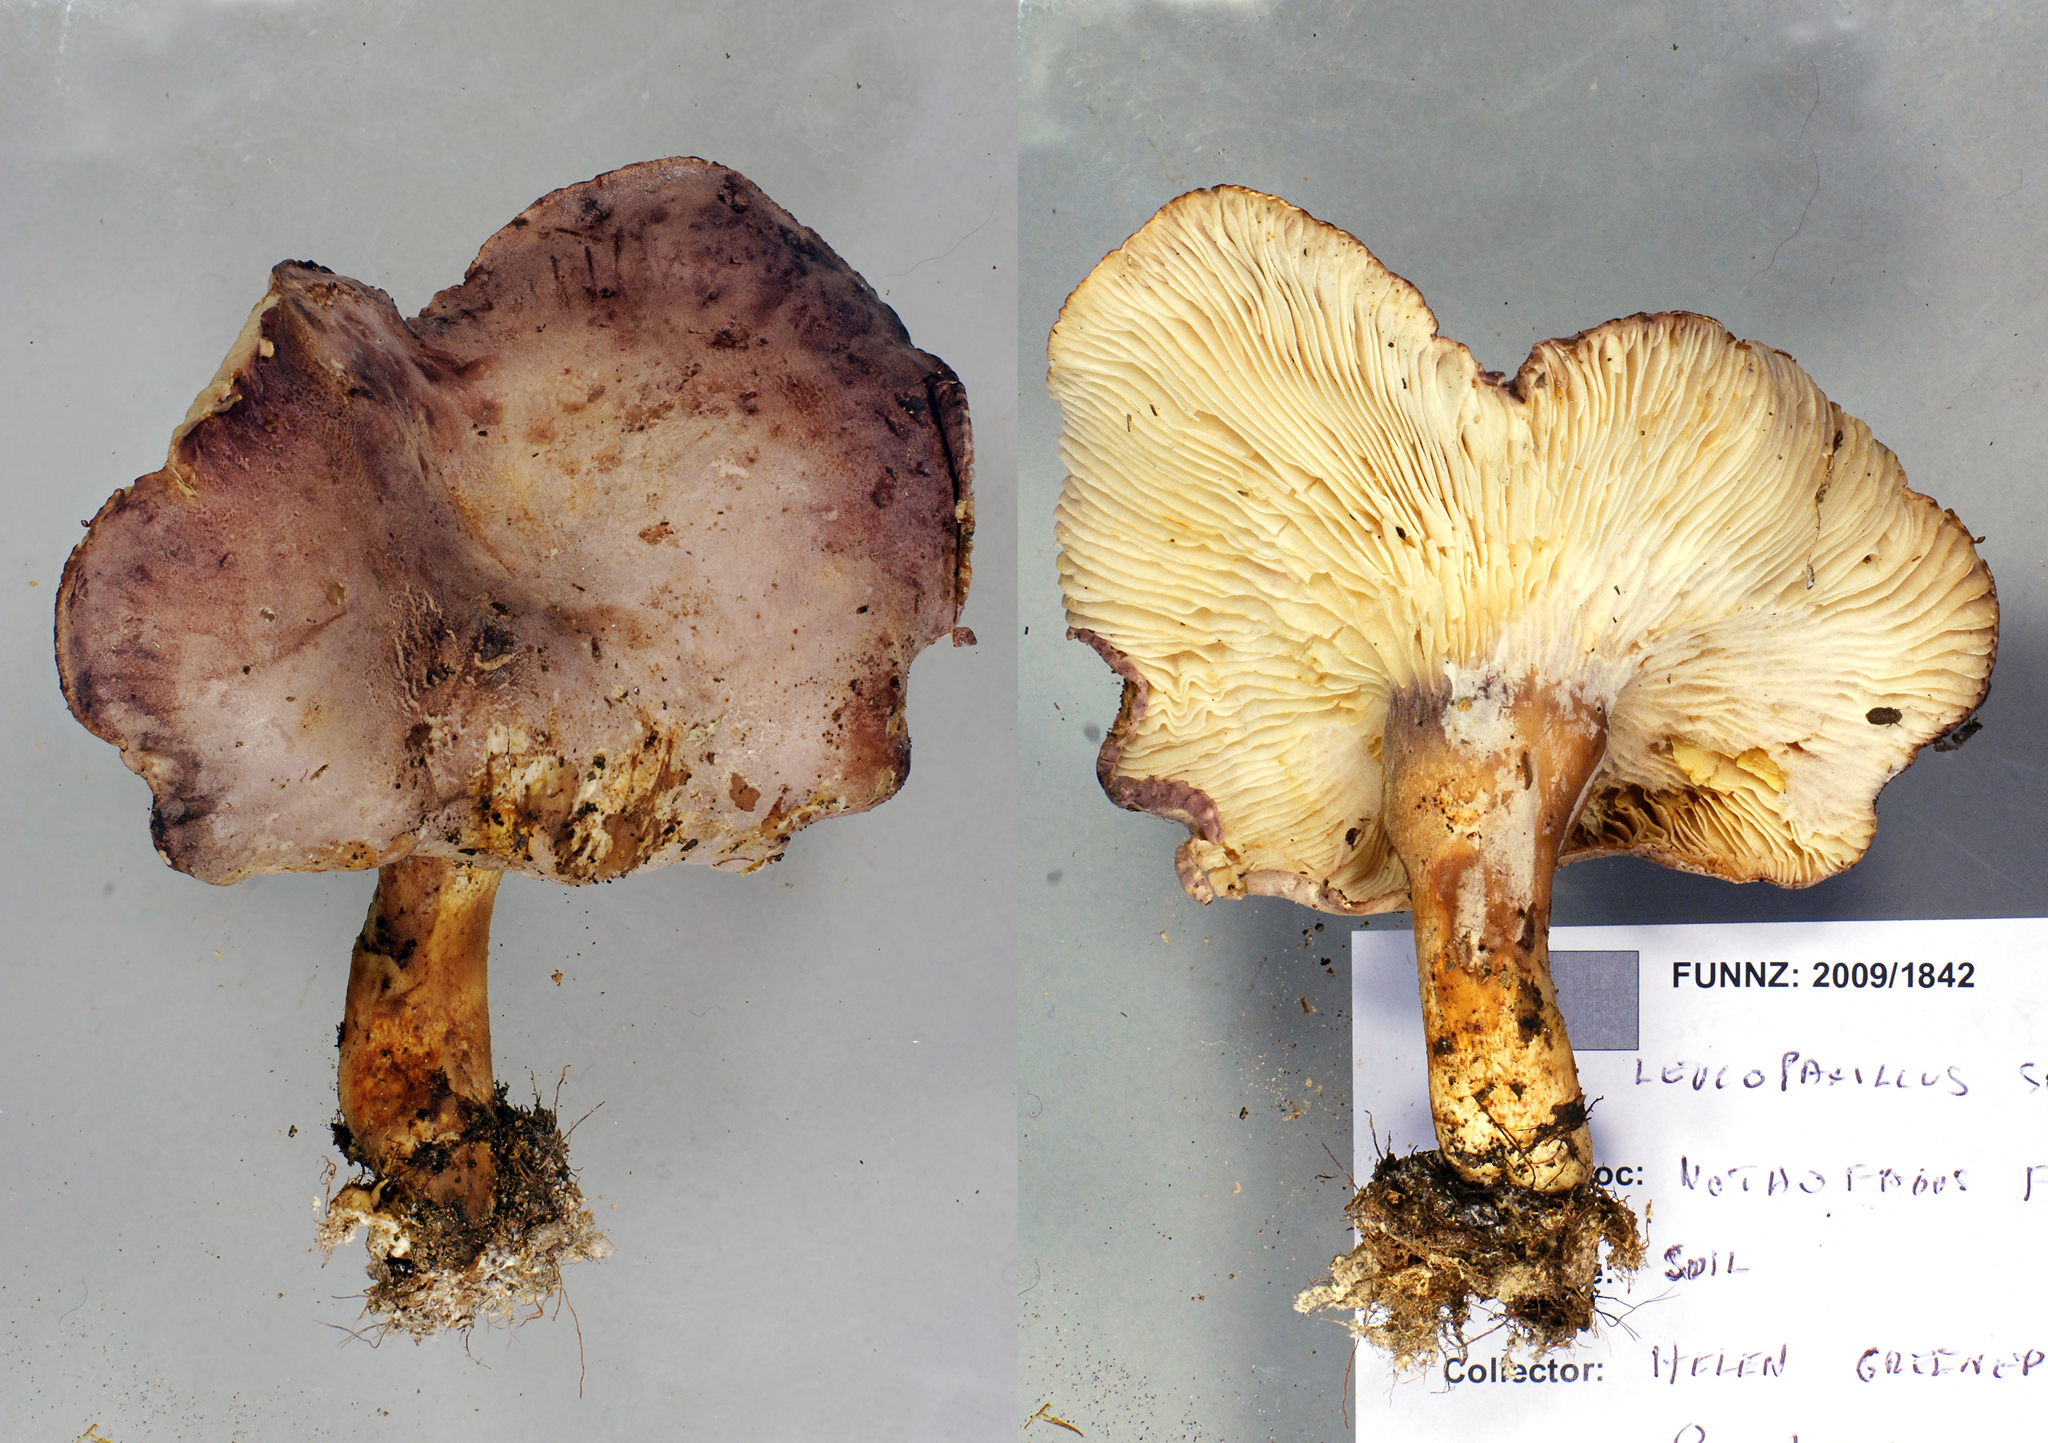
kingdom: Fungi
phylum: Basidiomycota
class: Agaricomycetes
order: Agaricales
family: Tricholomataceae
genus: Leucopaxillus
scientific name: Leucopaxillus lilacinus
